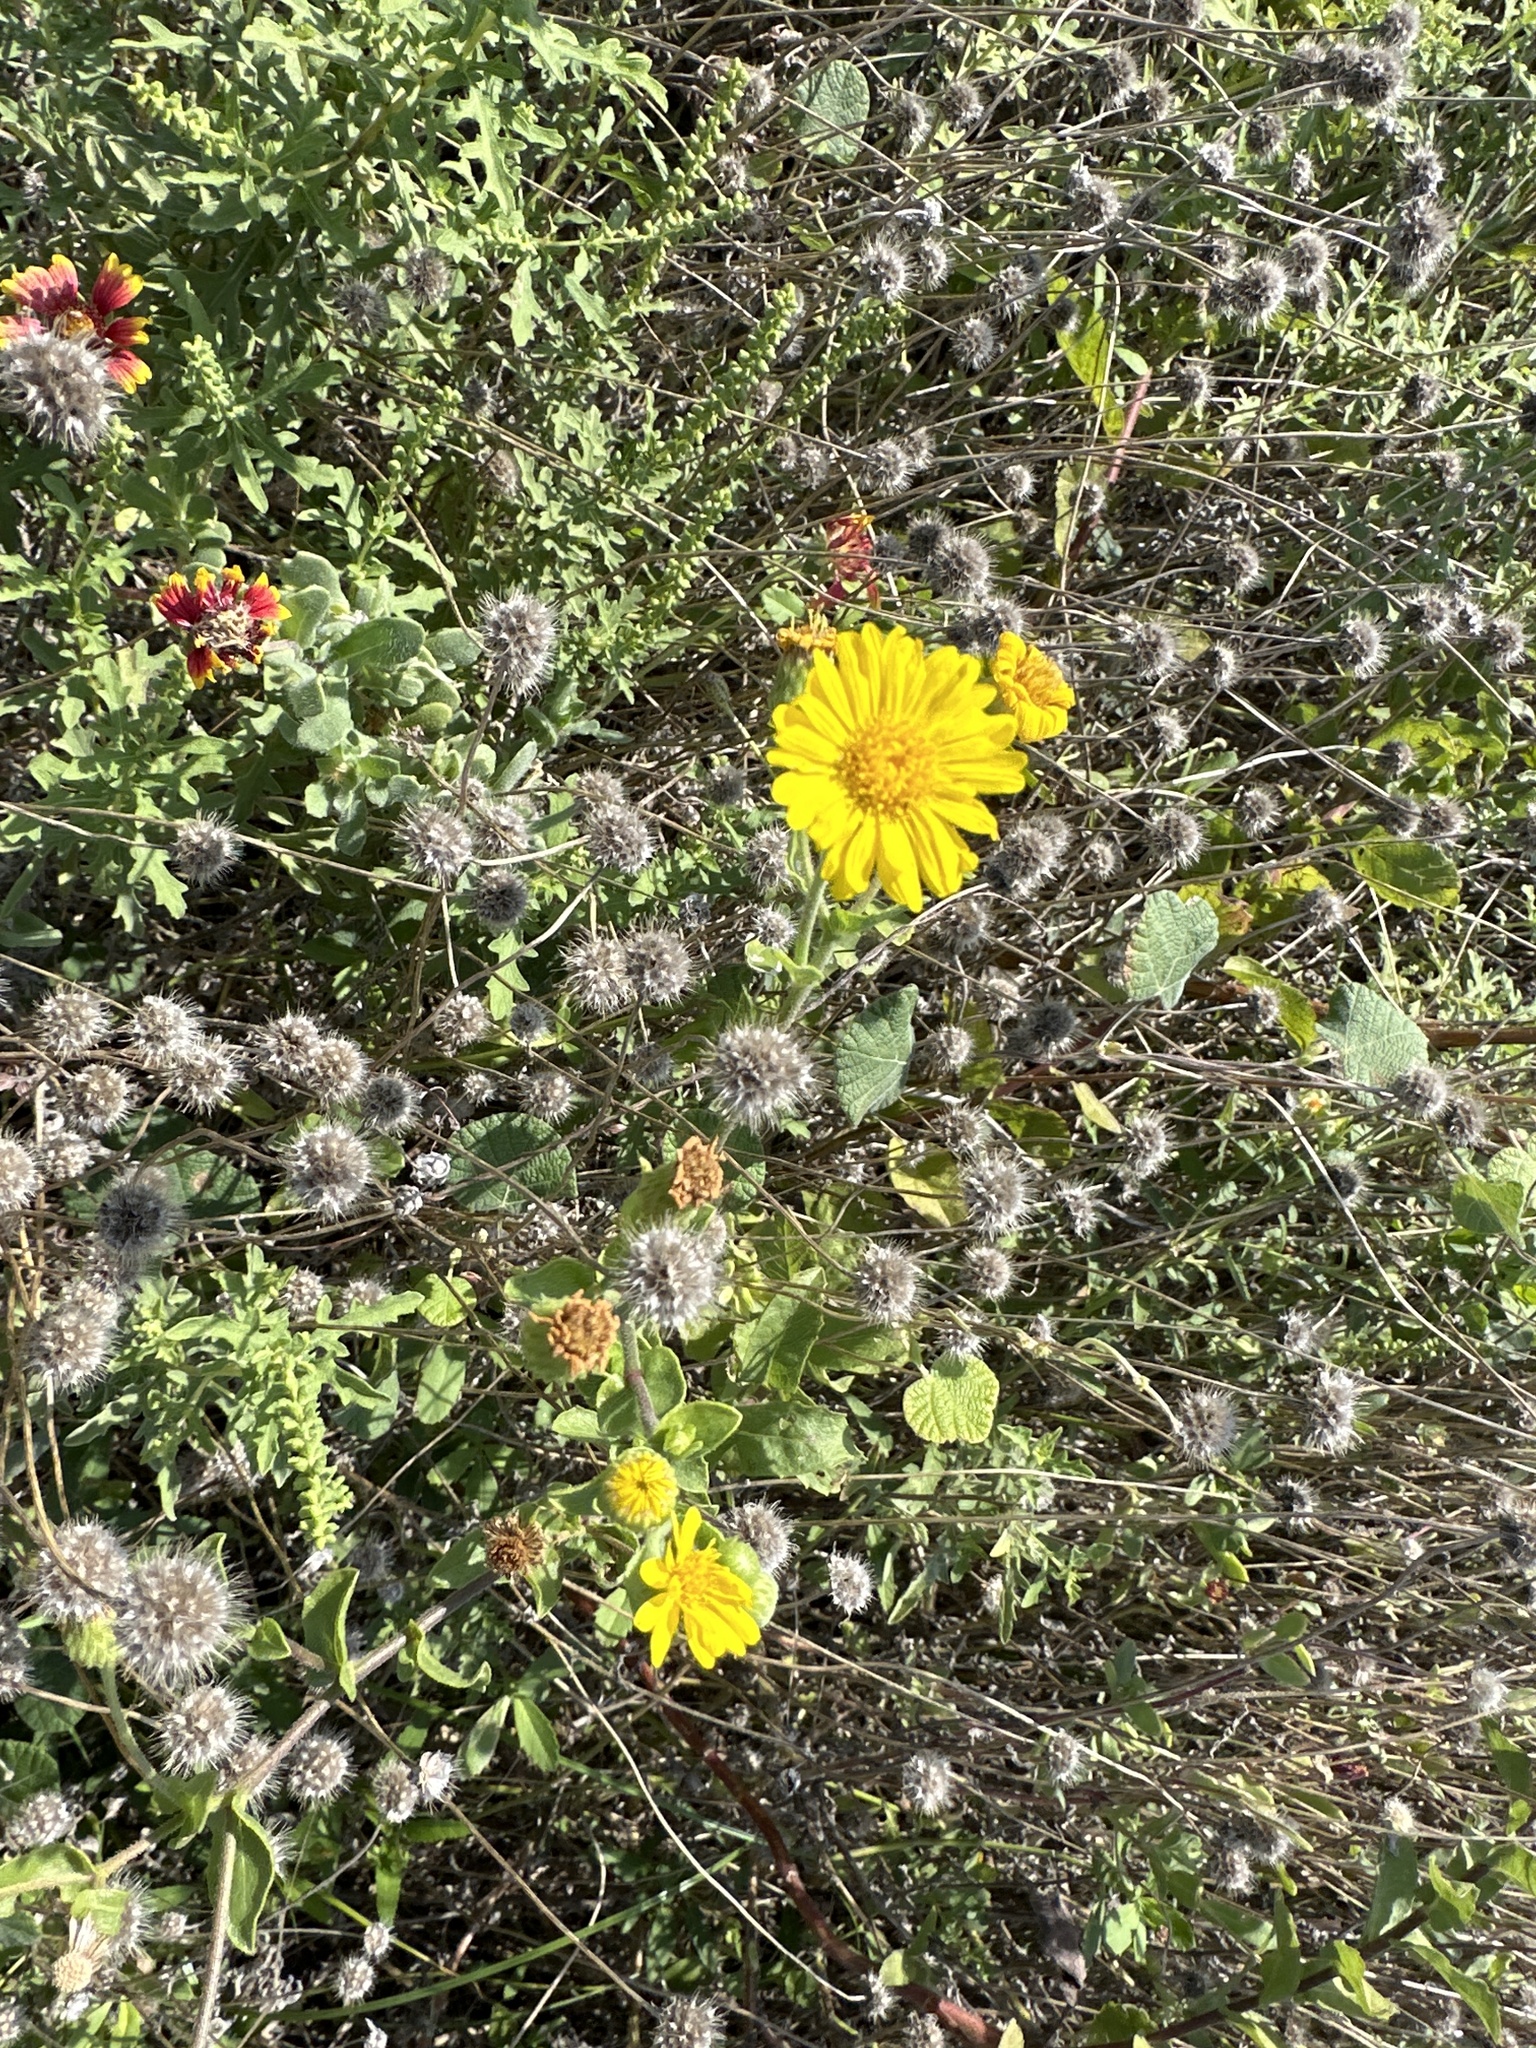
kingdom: Plantae
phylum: Tracheophyta
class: Magnoliopsida
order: Asterales
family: Asteraceae
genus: Heterotheca
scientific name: Heterotheca subaxillaris
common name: Camphorweed
